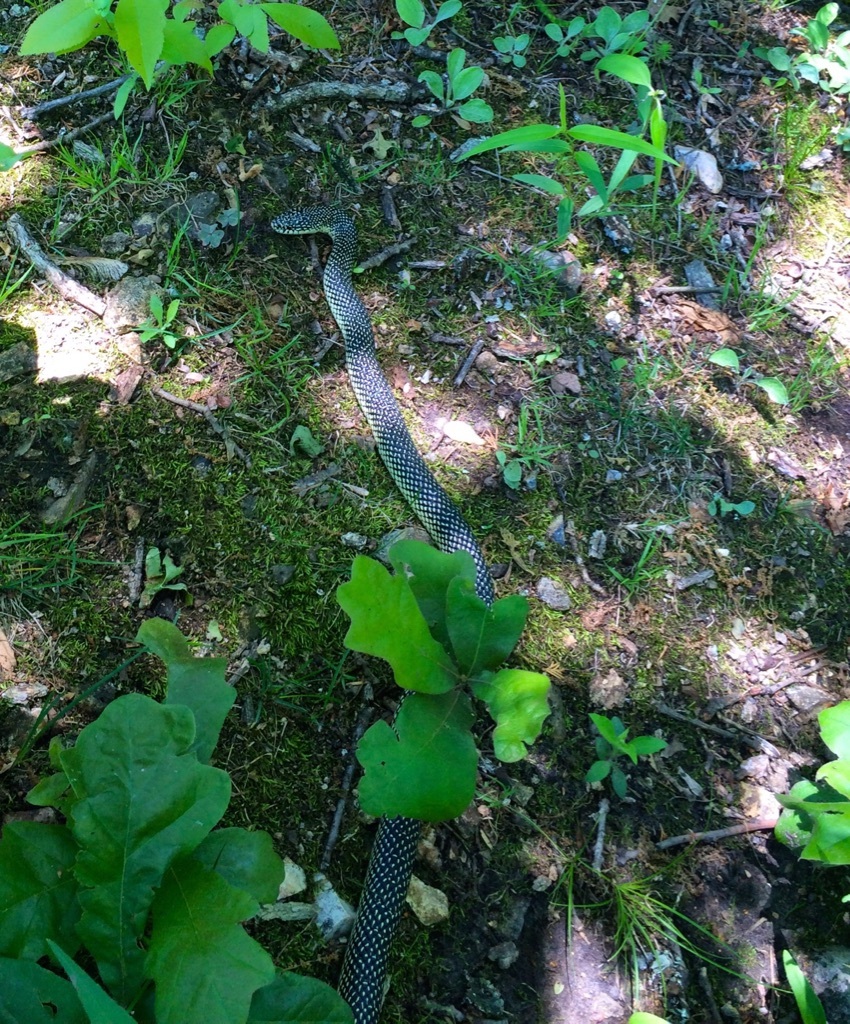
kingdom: Animalia
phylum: Chordata
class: Squamata
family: Colubridae
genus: Lampropeltis
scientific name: Lampropeltis holbrooki
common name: Speckled kingsnake
